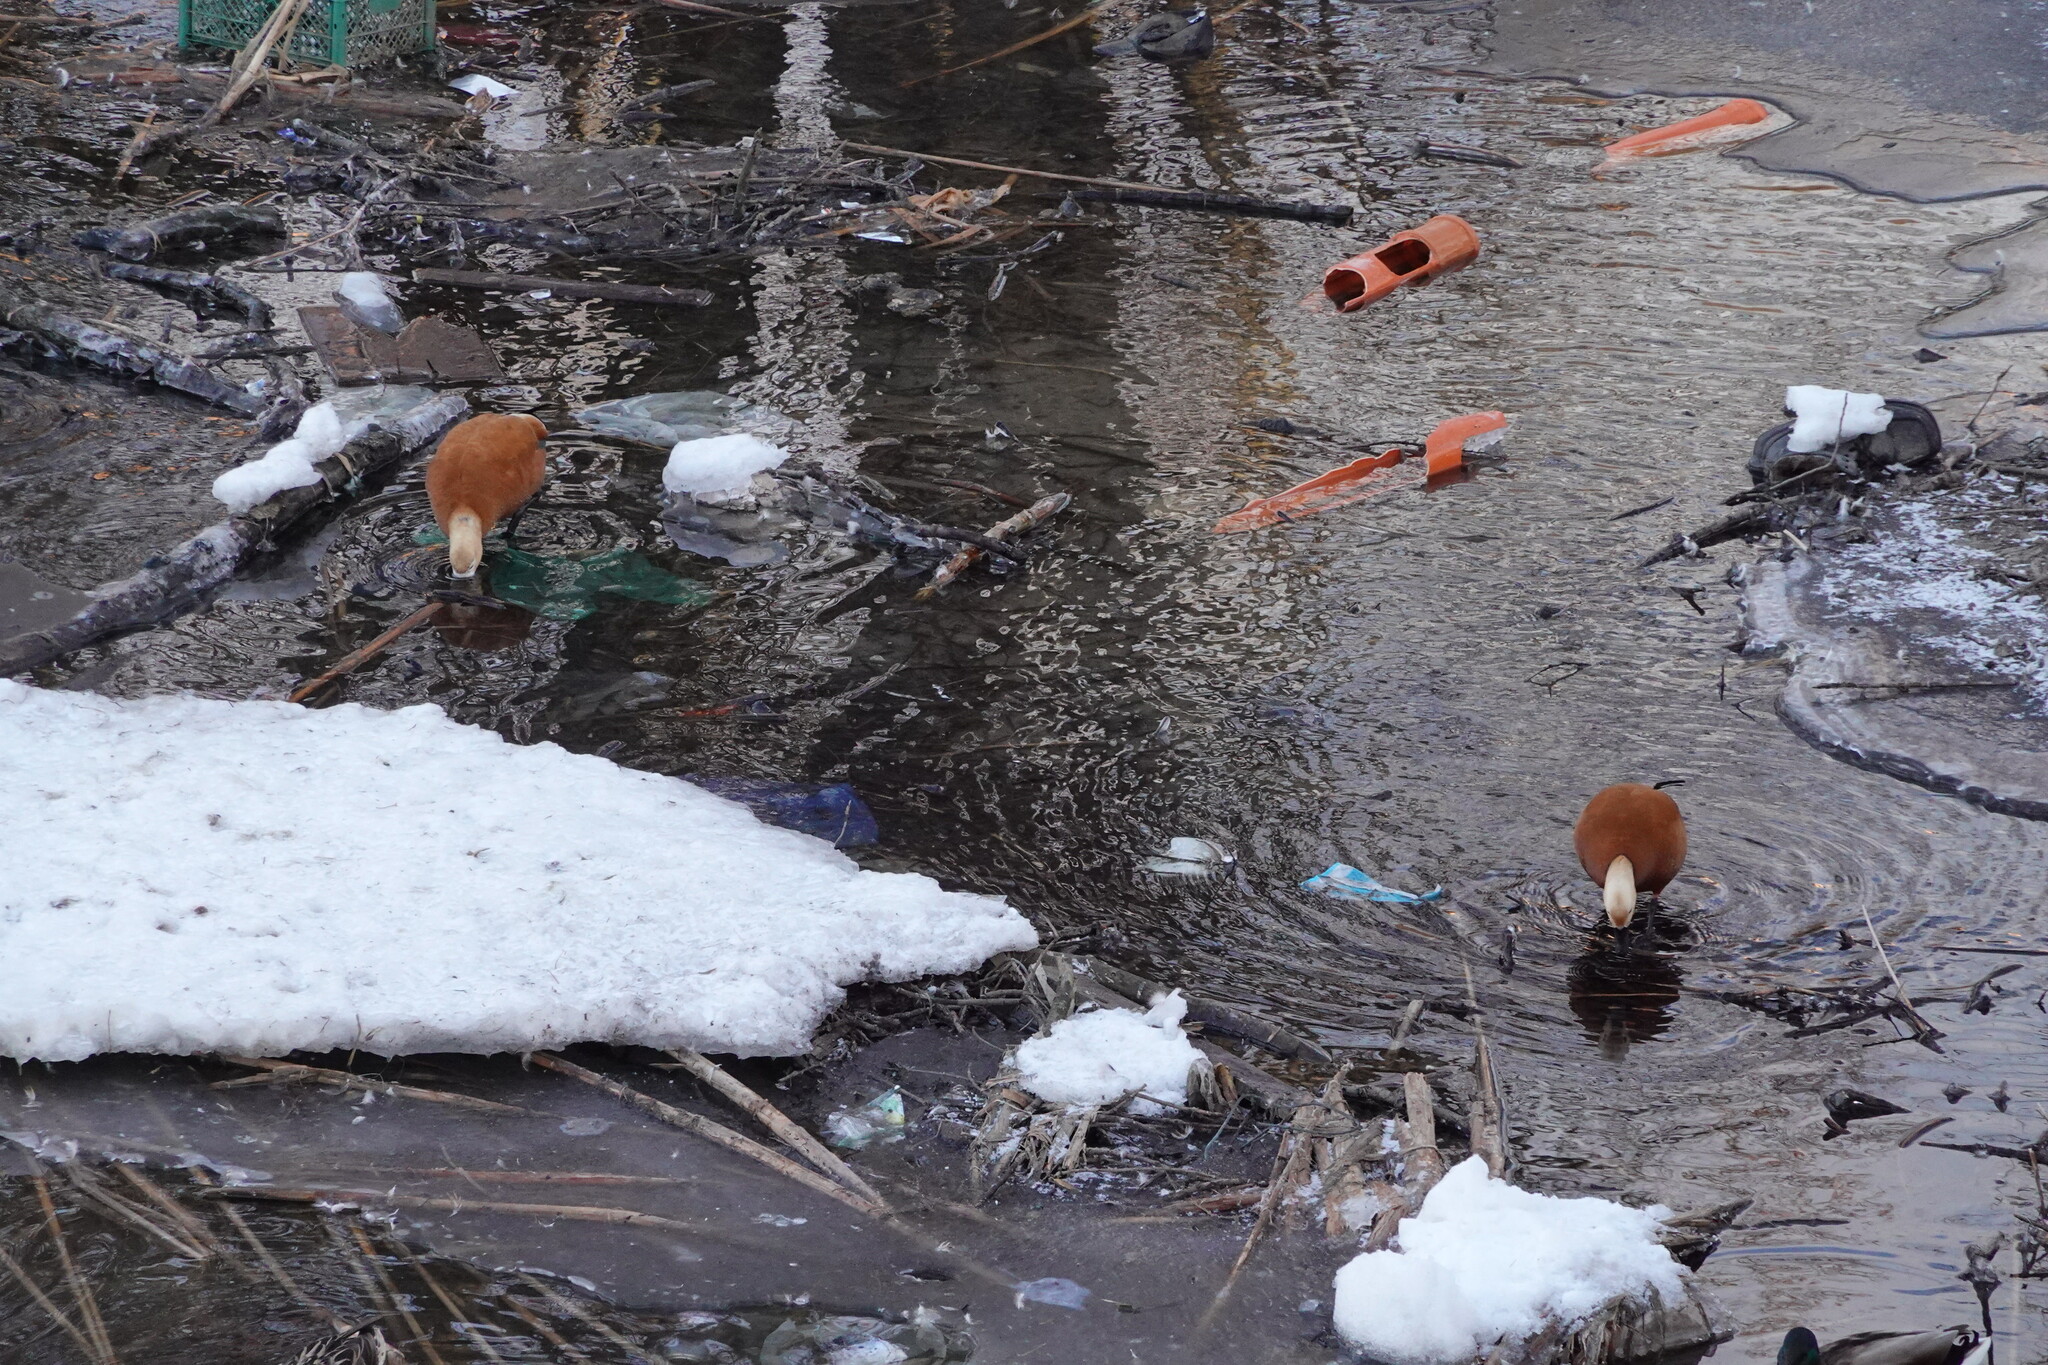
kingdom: Animalia
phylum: Chordata
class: Aves
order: Anseriformes
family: Anatidae
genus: Tadorna
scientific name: Tadorna ferruginea
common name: Ruddy shelduck
